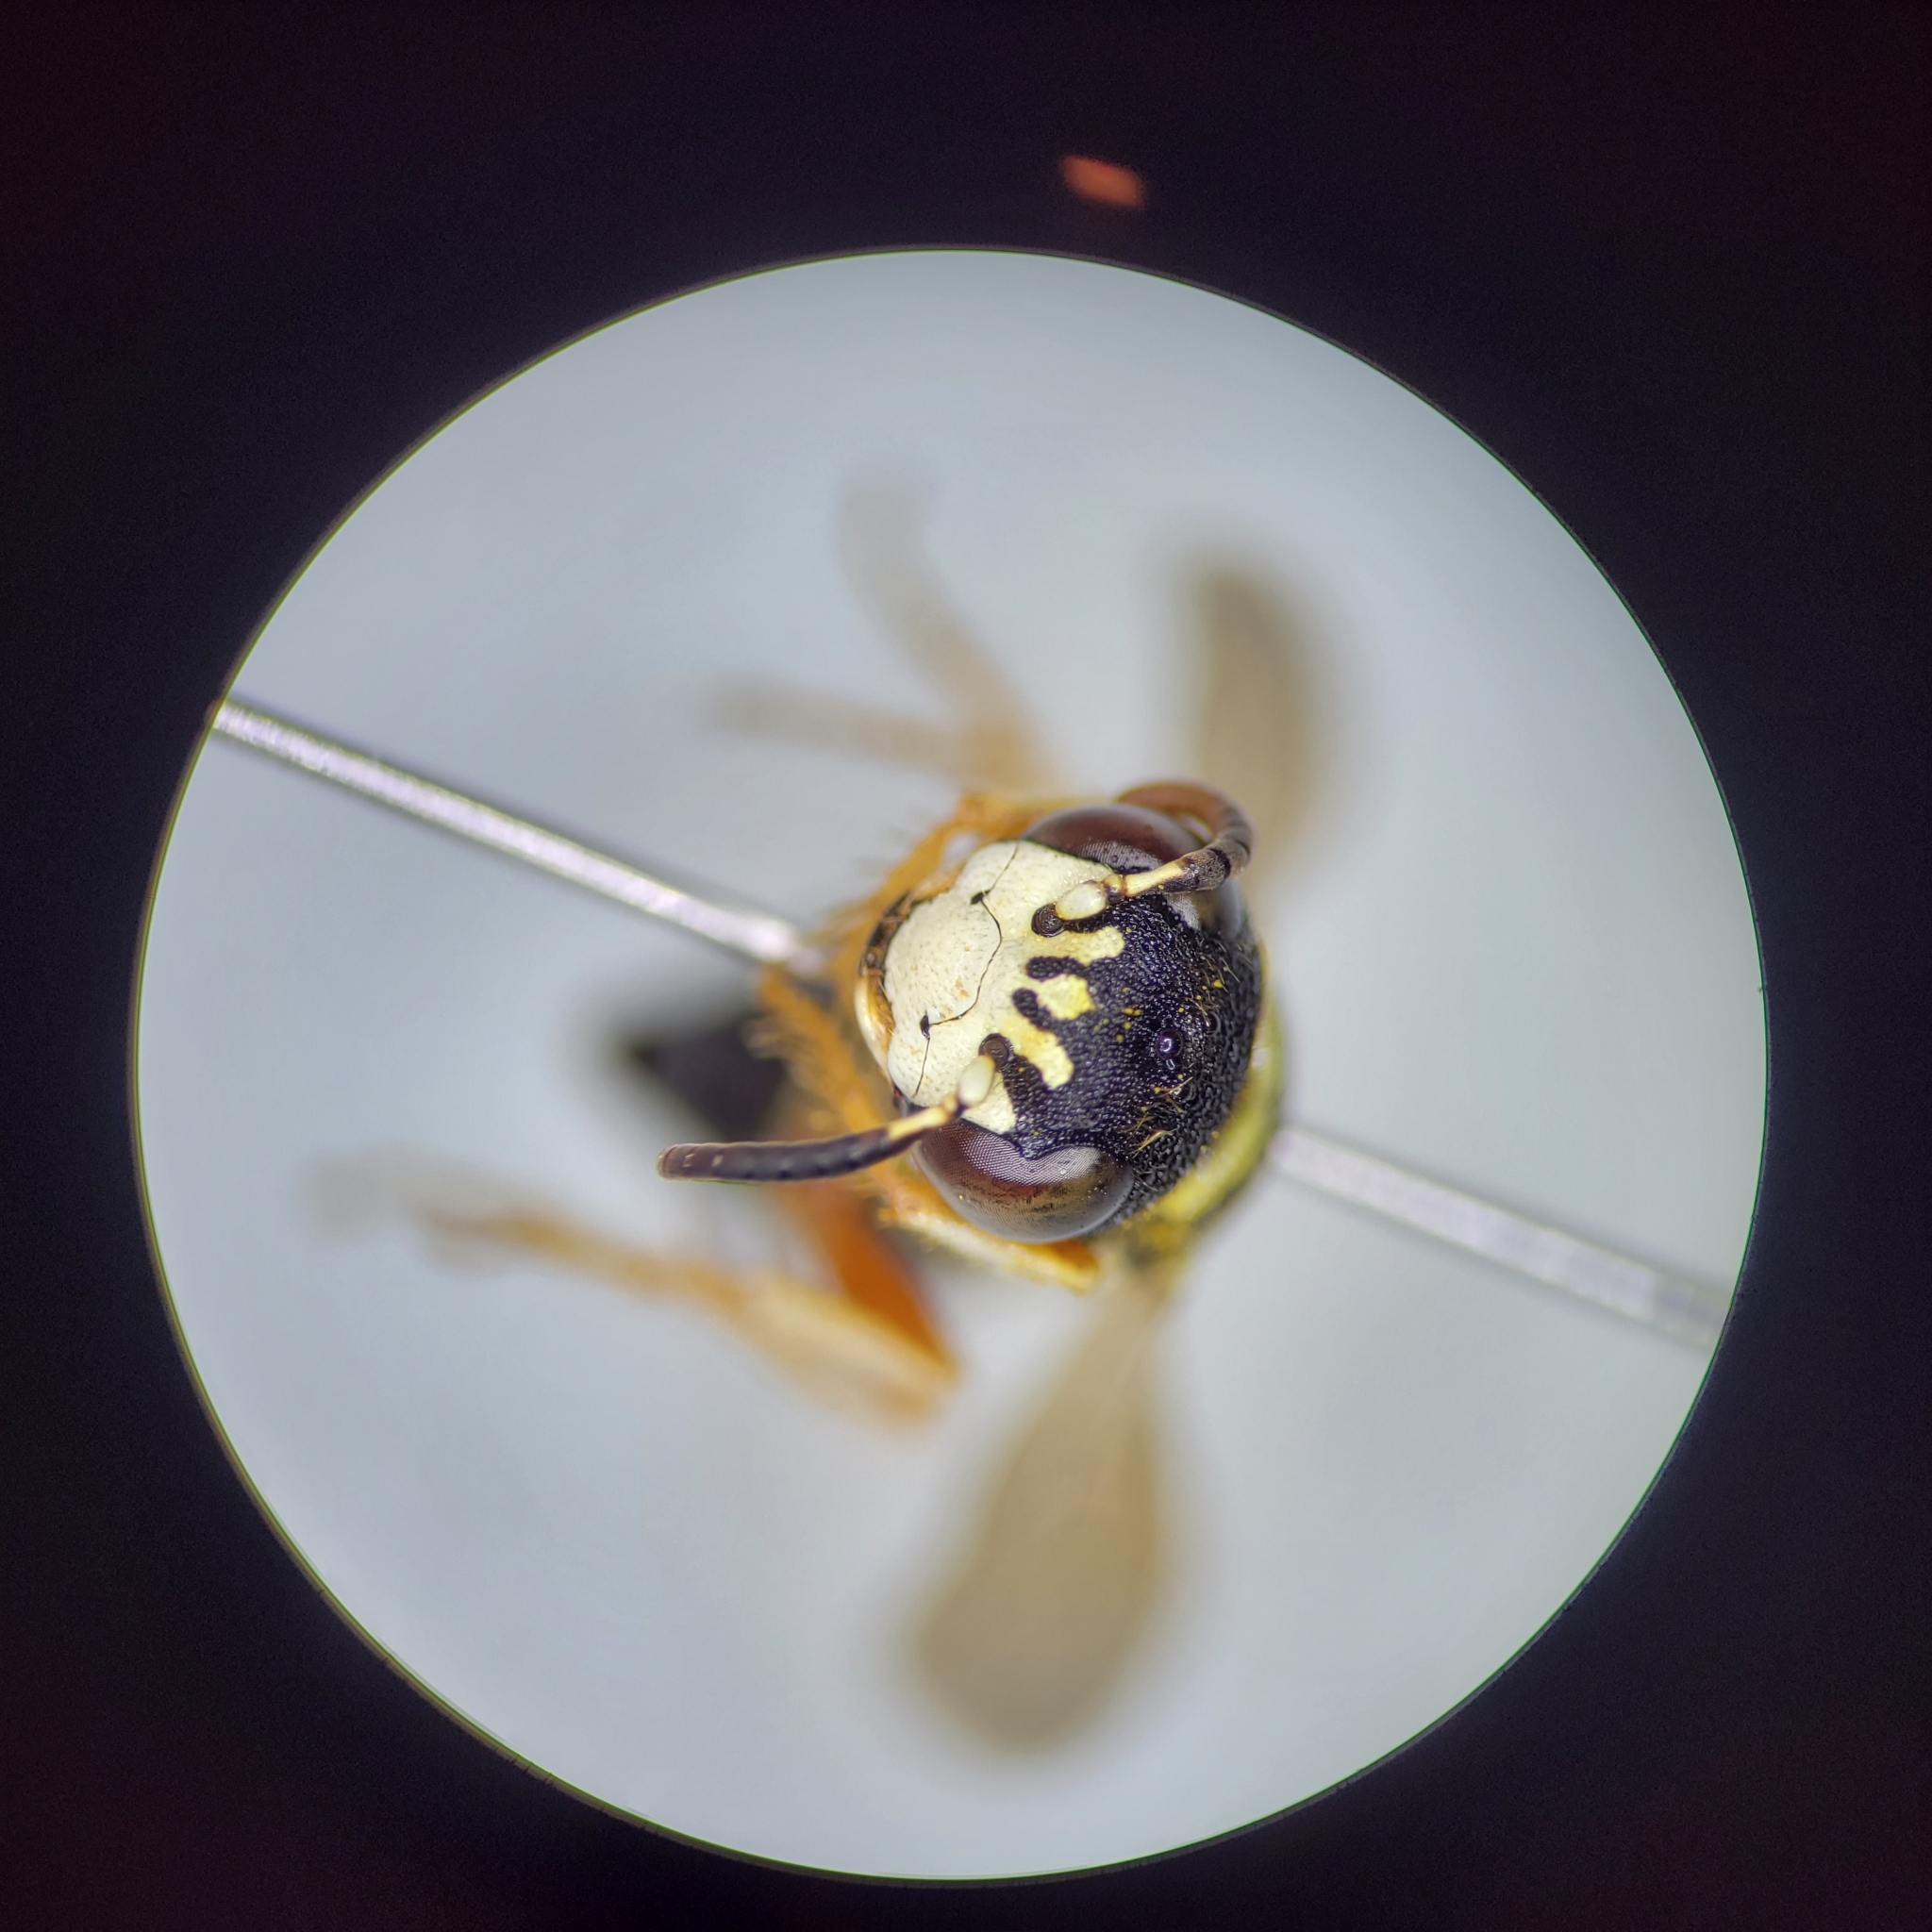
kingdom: Animalia
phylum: Arthropoda
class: Insecta
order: Hymenoptera
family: Crabronidae
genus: Philanthus
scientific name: Philanthus ventilabris
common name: Bee-killer wasp
